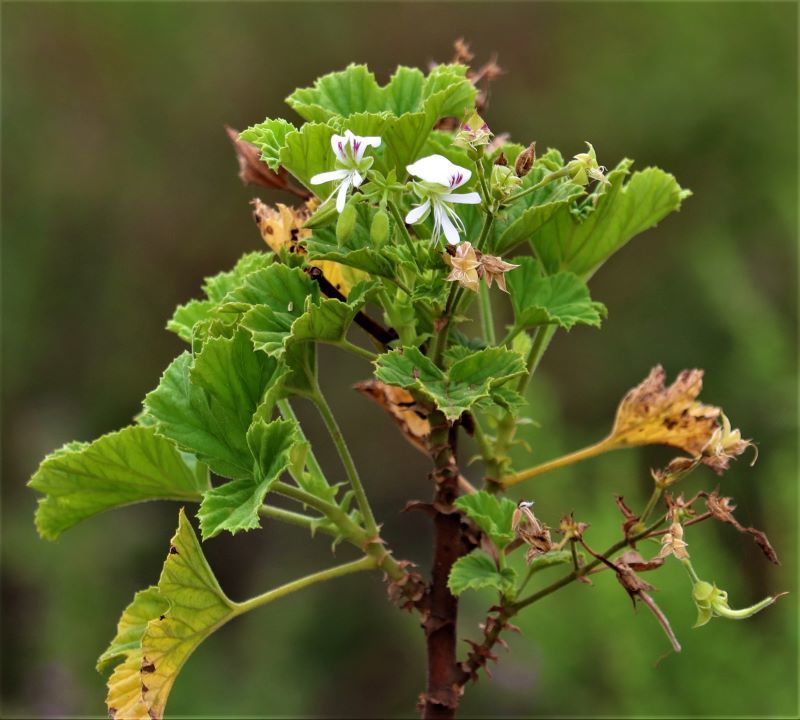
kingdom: Plantae
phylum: Tracheophyta
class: Magnoliopsida
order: Geraniales
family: Geraniaceae
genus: Pelargonium
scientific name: Pelargonium ribifolium
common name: Currant-leaf pelargonium
